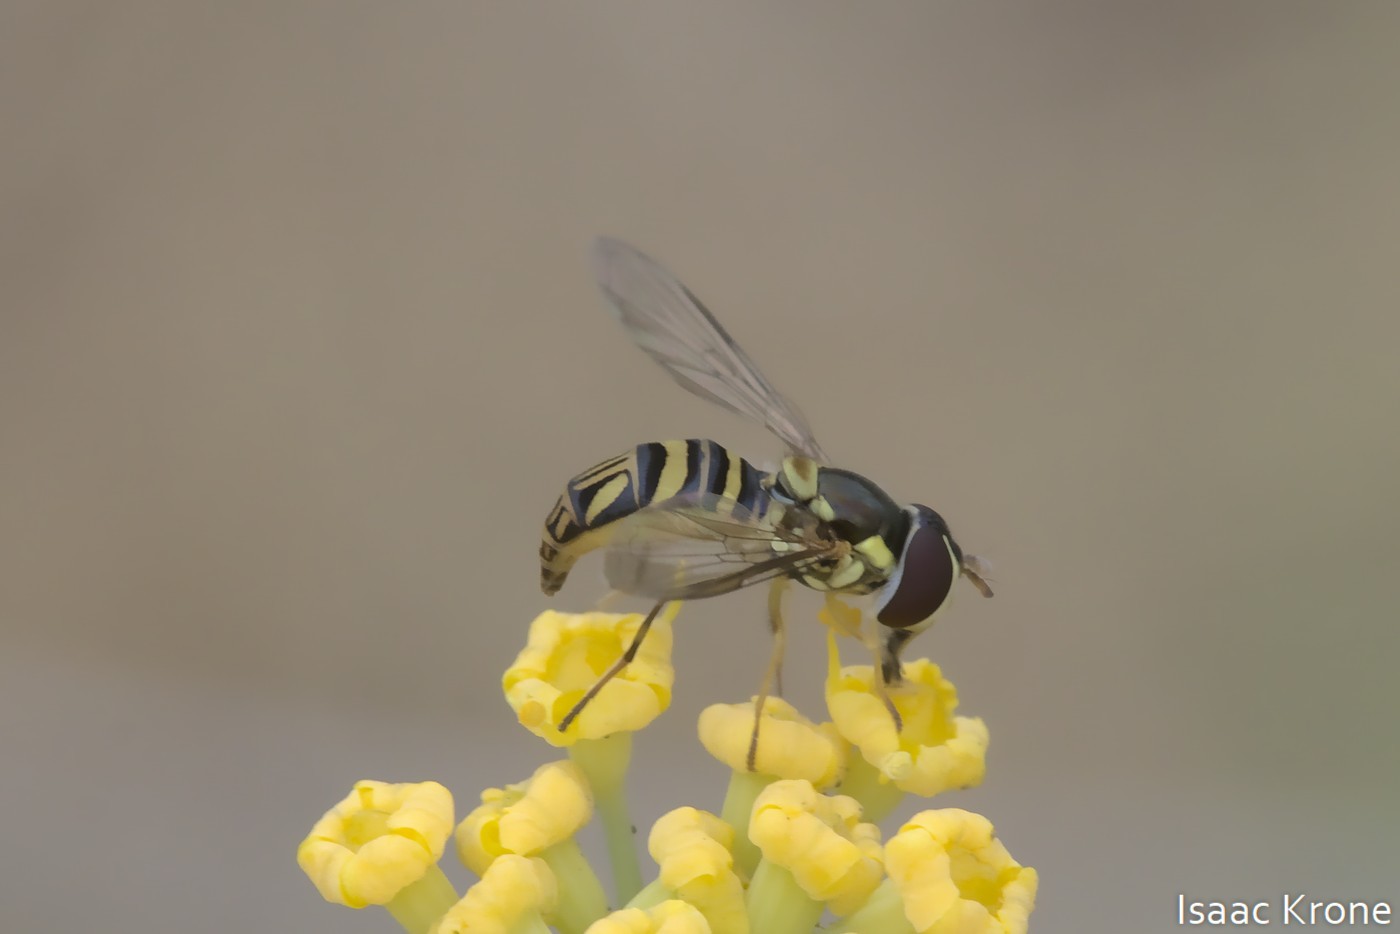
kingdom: Animalia
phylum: Arthropoda
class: Insecta
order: Diptera
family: Syrphidae
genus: Allograpta
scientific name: Allograpta obliqua
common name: Common oblique syrphid
